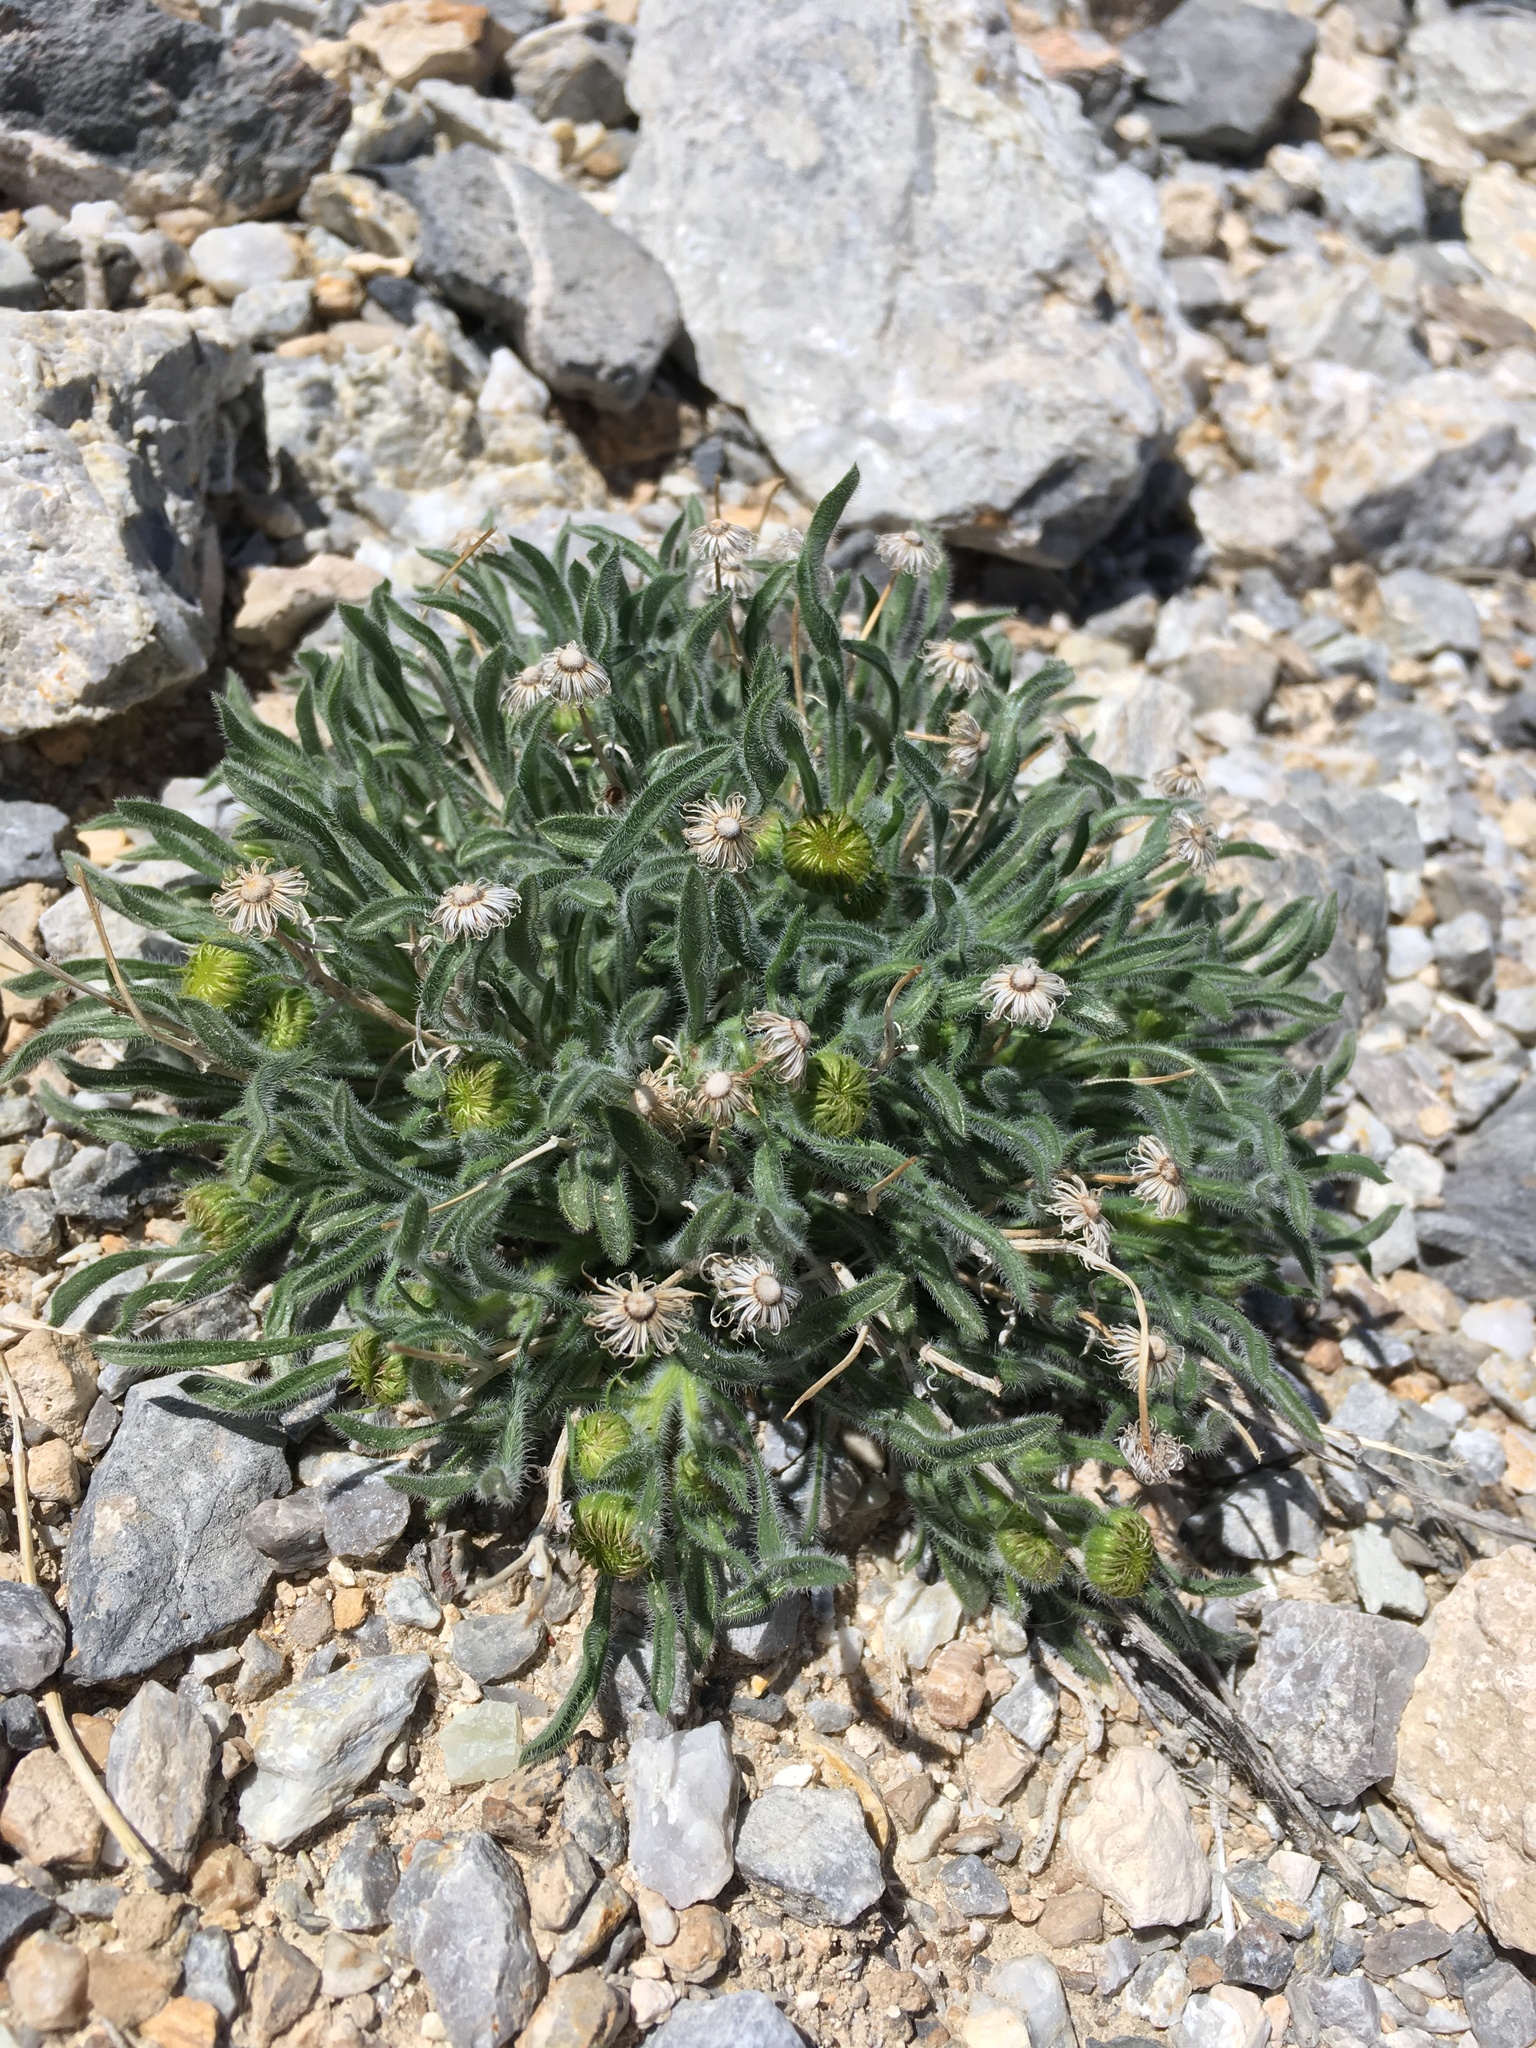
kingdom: Plantae
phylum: Tracheophyta
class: Magnoliopsida
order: Asterales
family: Asteraceae
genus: Erigeron
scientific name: Erigeron aphanactis
